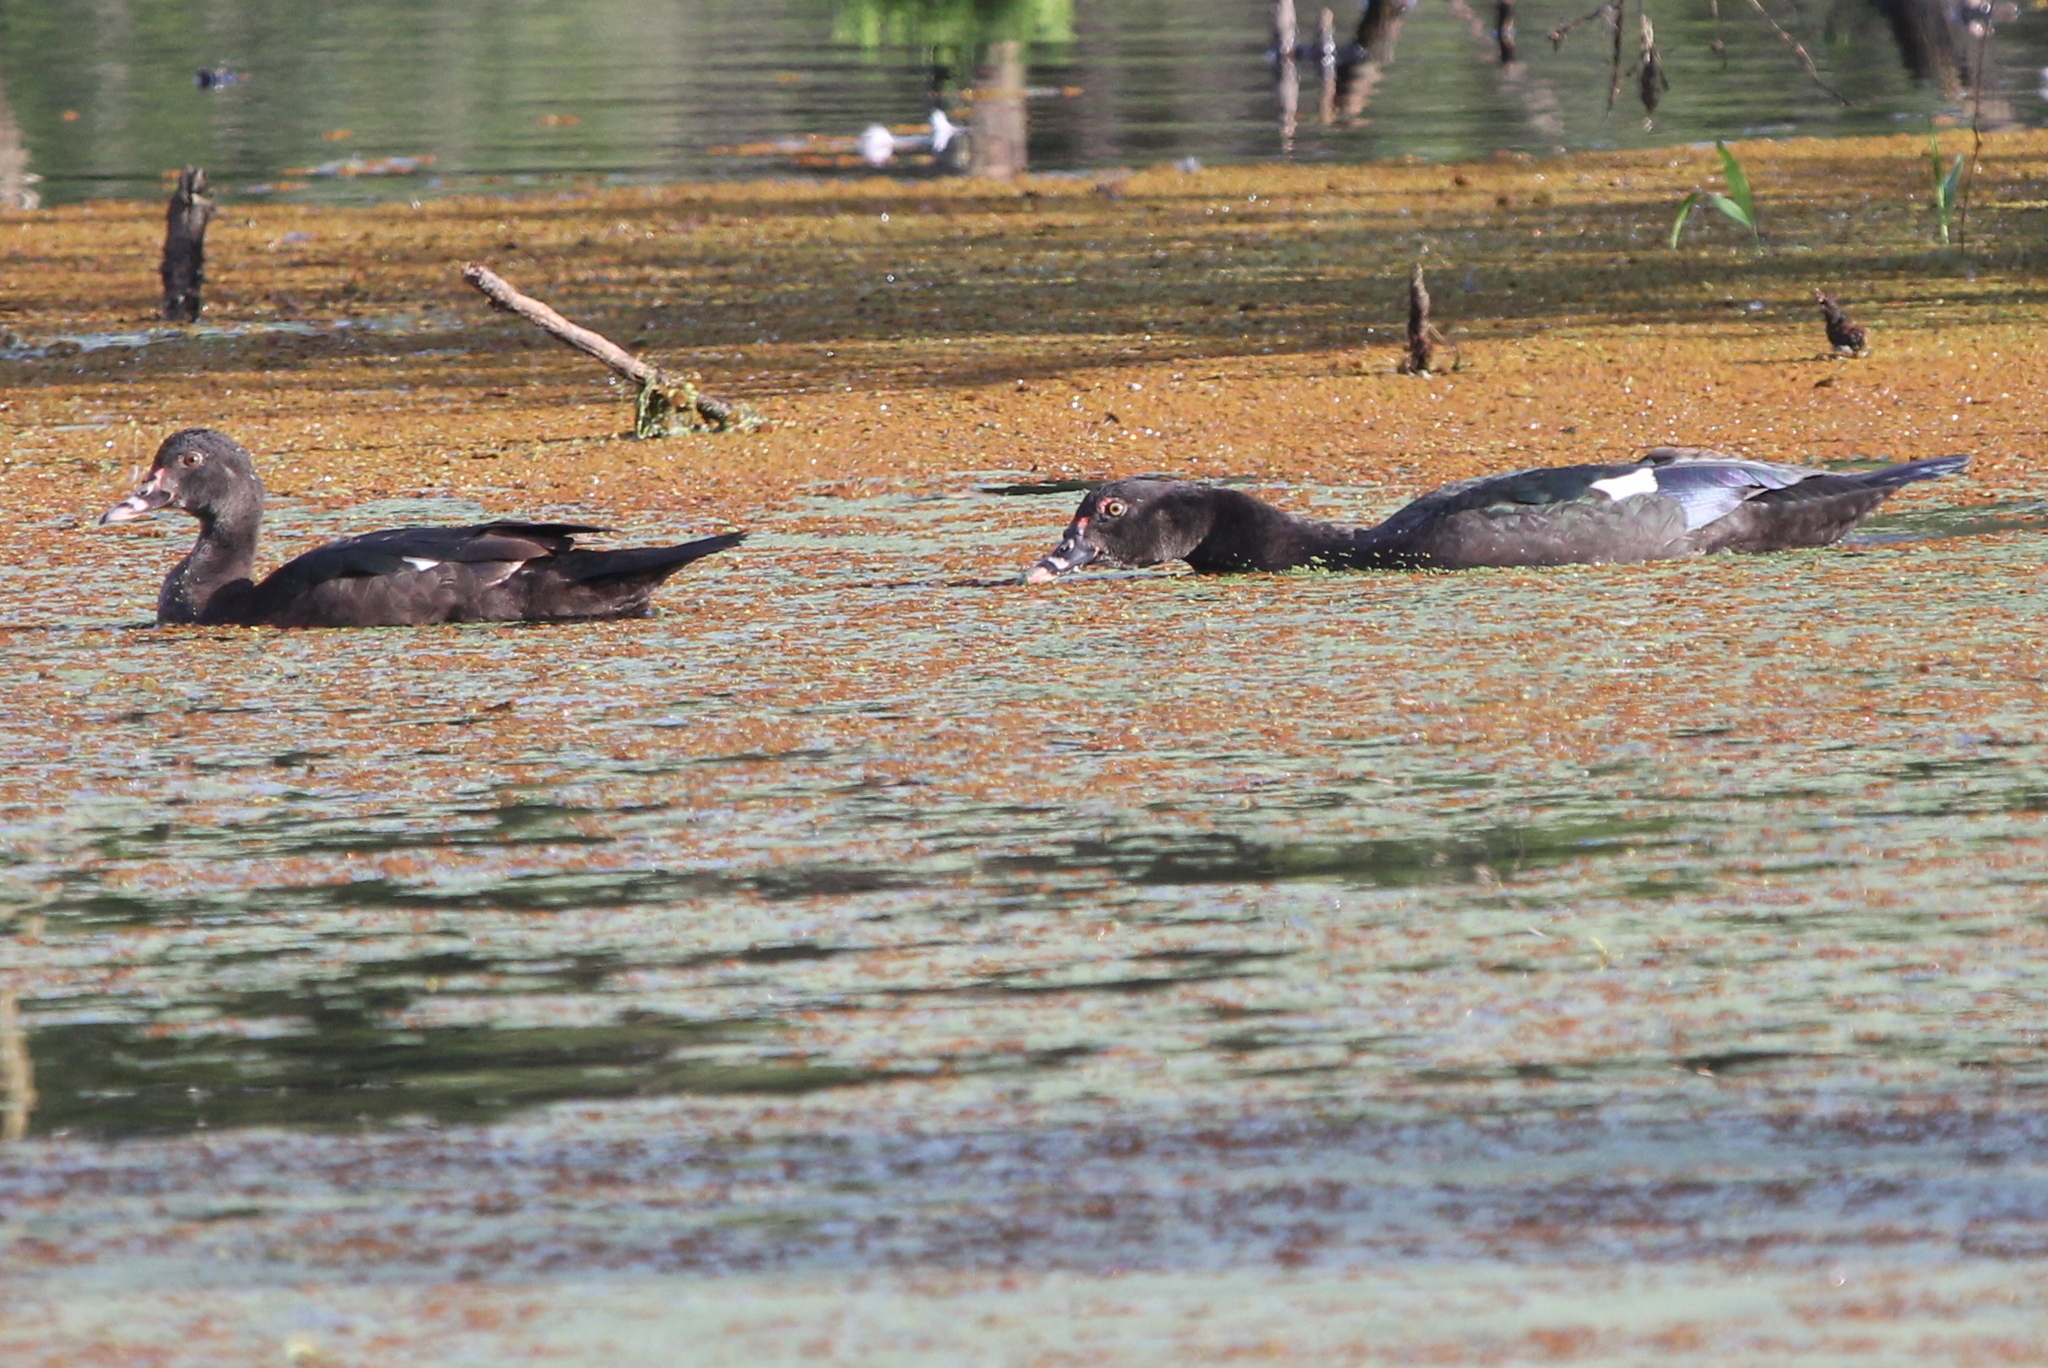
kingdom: Animalia
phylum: Chordata
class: Aves
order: Anseriformes
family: Anatidae
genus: Cairina
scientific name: Cairina moschata
